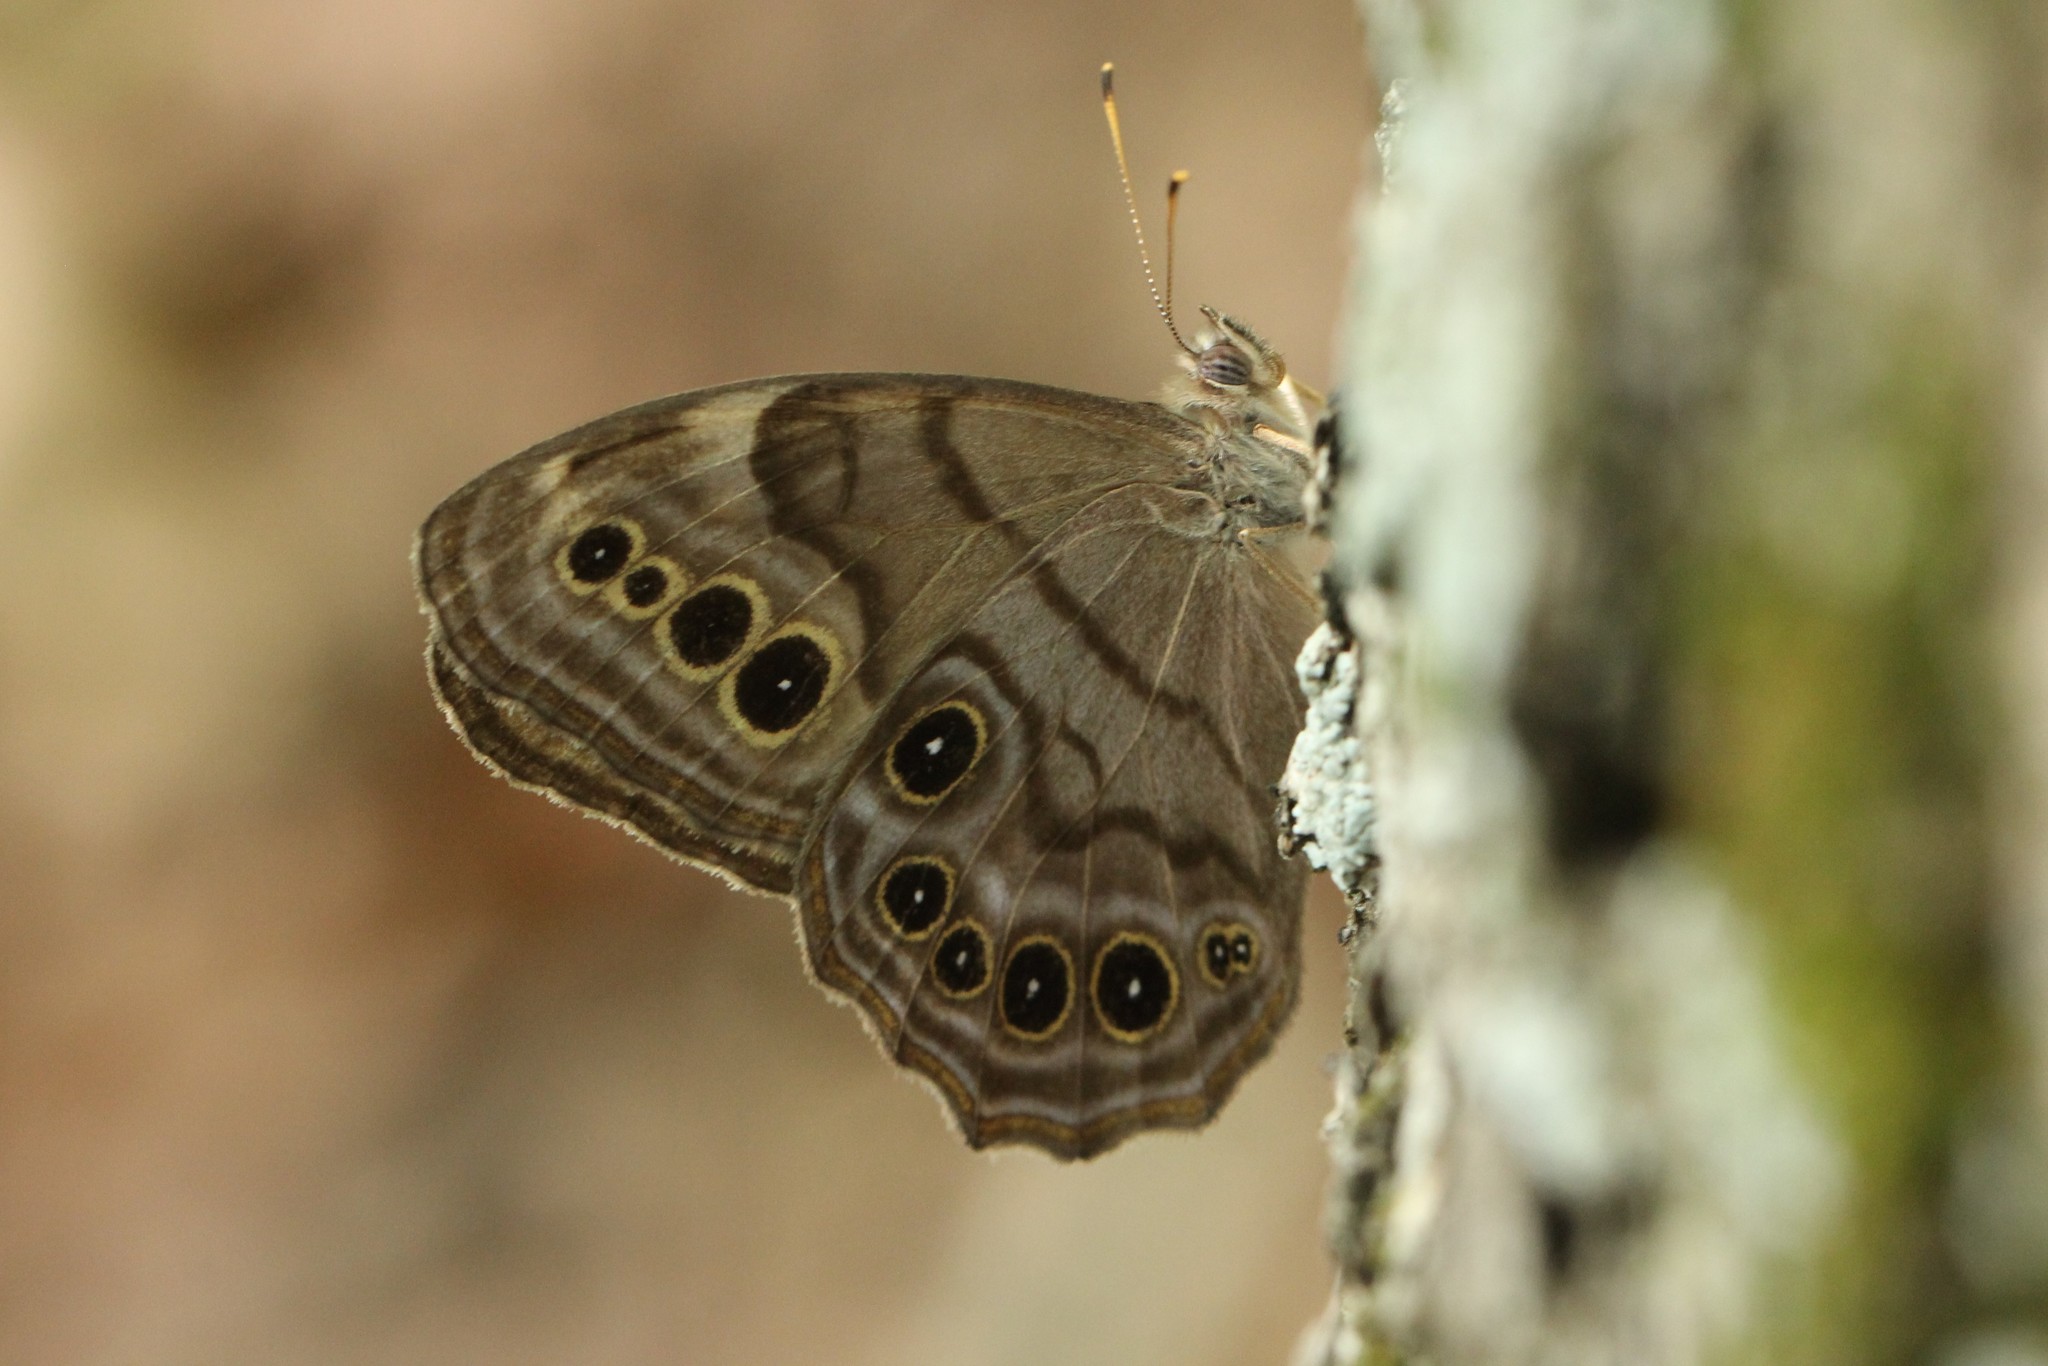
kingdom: Animalia
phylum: Arthropoda
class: Insecta
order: Lepidoptera
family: Nymphalidae
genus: Lethe
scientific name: Lethe anthedon
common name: Northern pearly-eye
